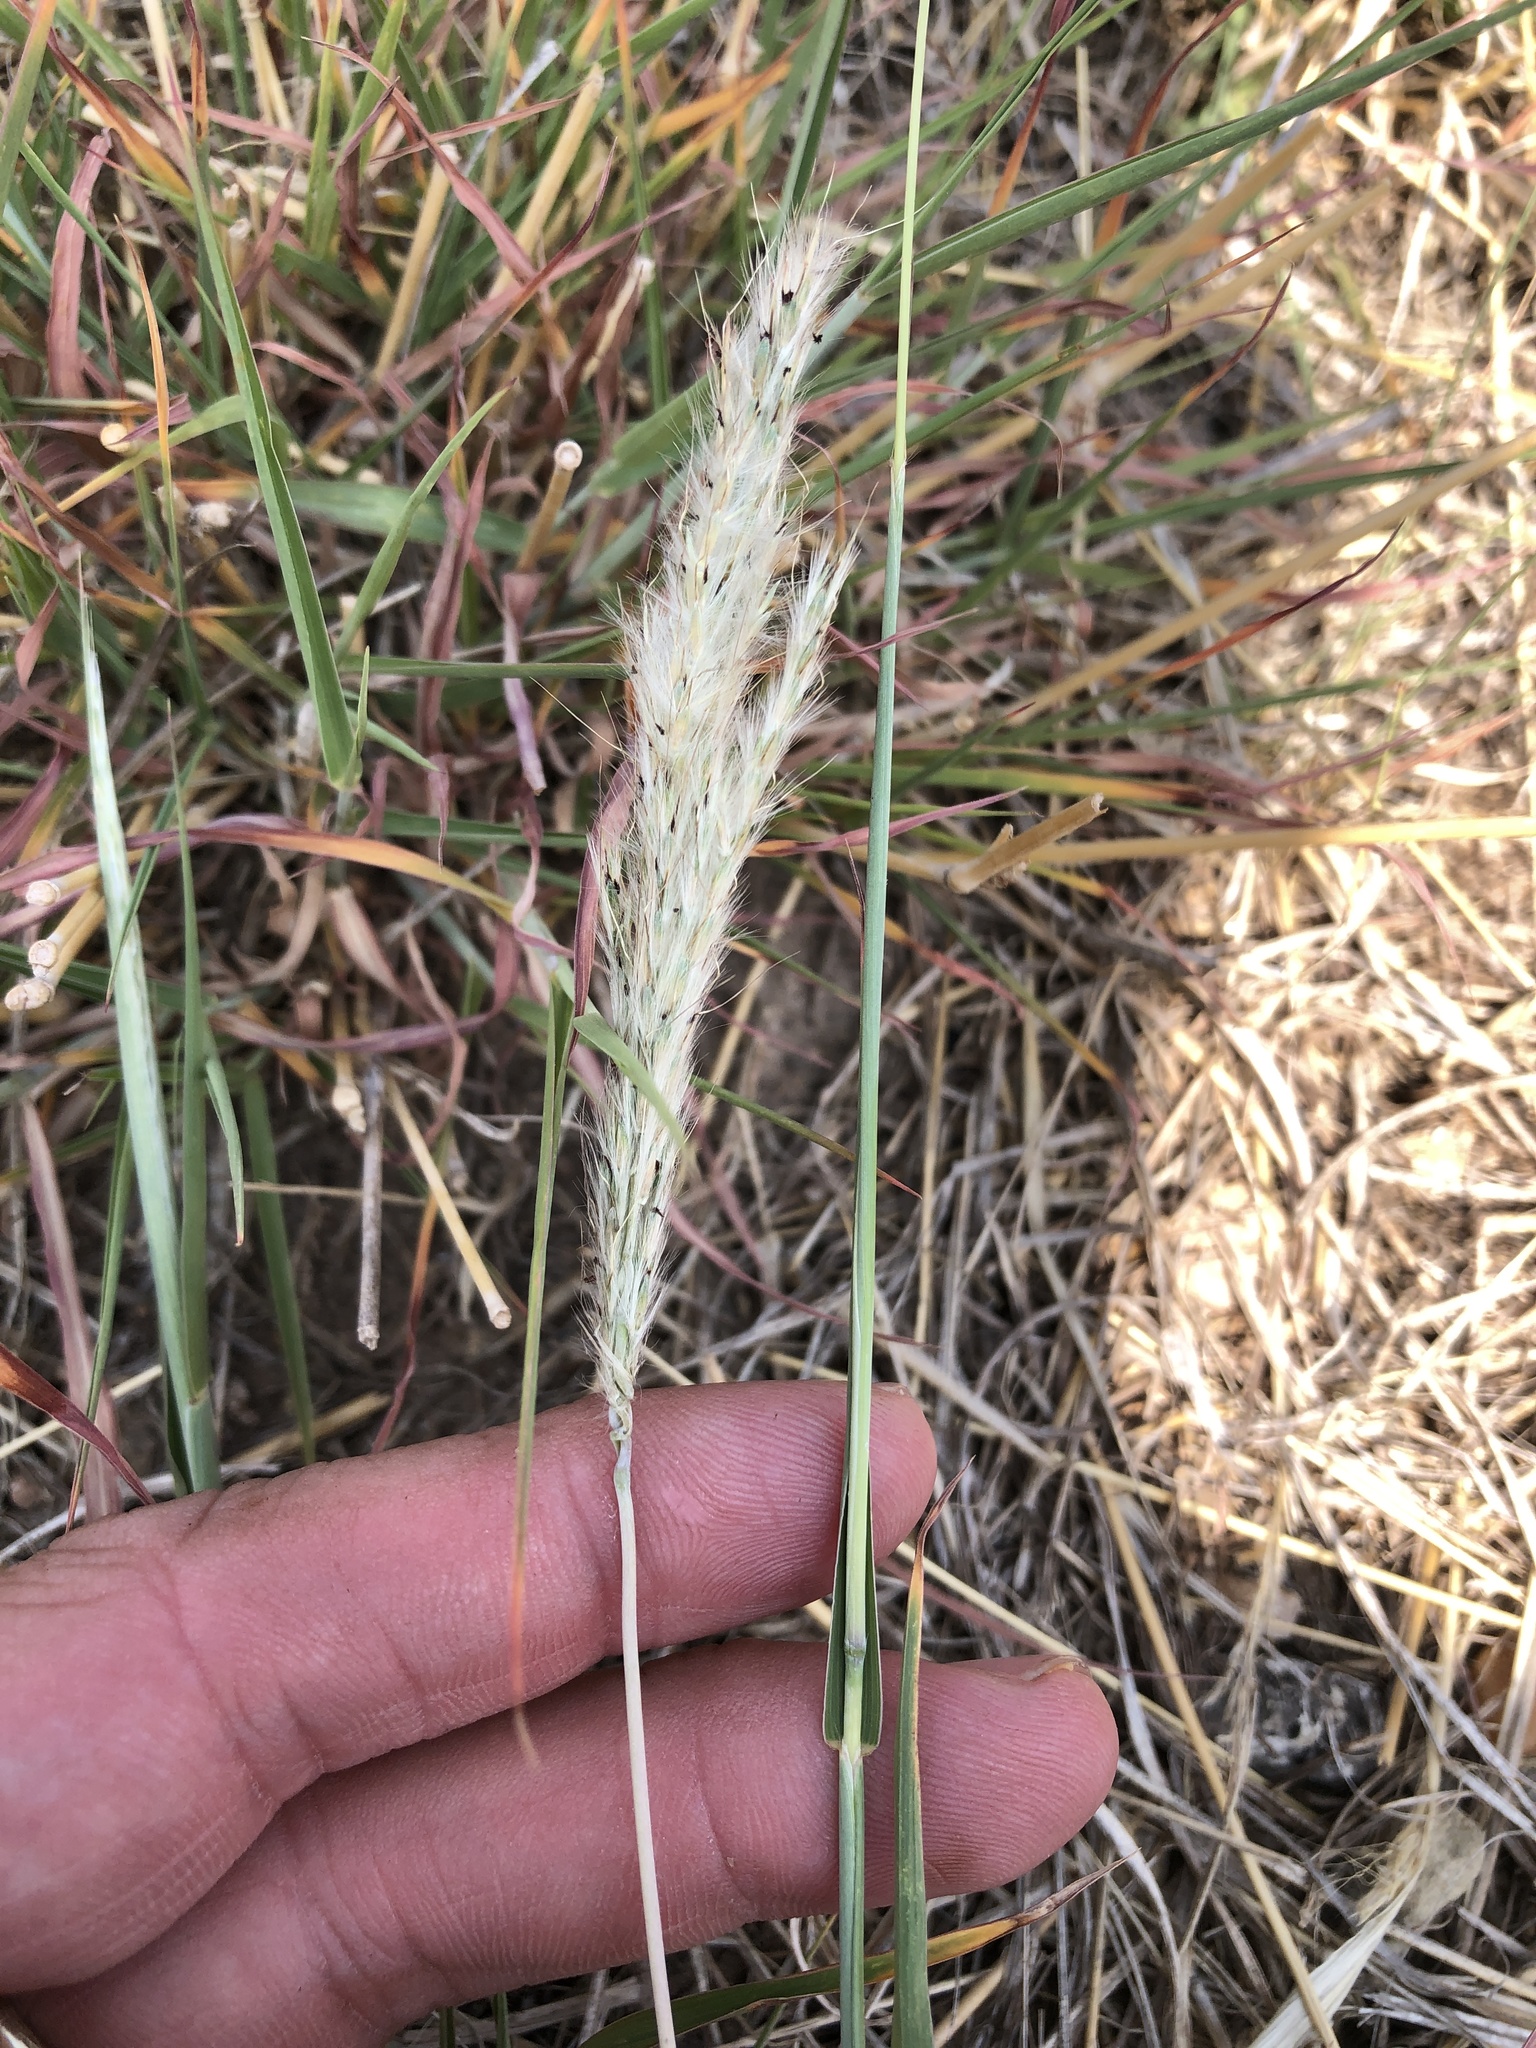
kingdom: Plantae
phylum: Tracheophyta
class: Liliopsida
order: Poales
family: Poaceae
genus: Bothriochloa
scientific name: Bothriochloa barbinodis
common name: Cane bluestem
